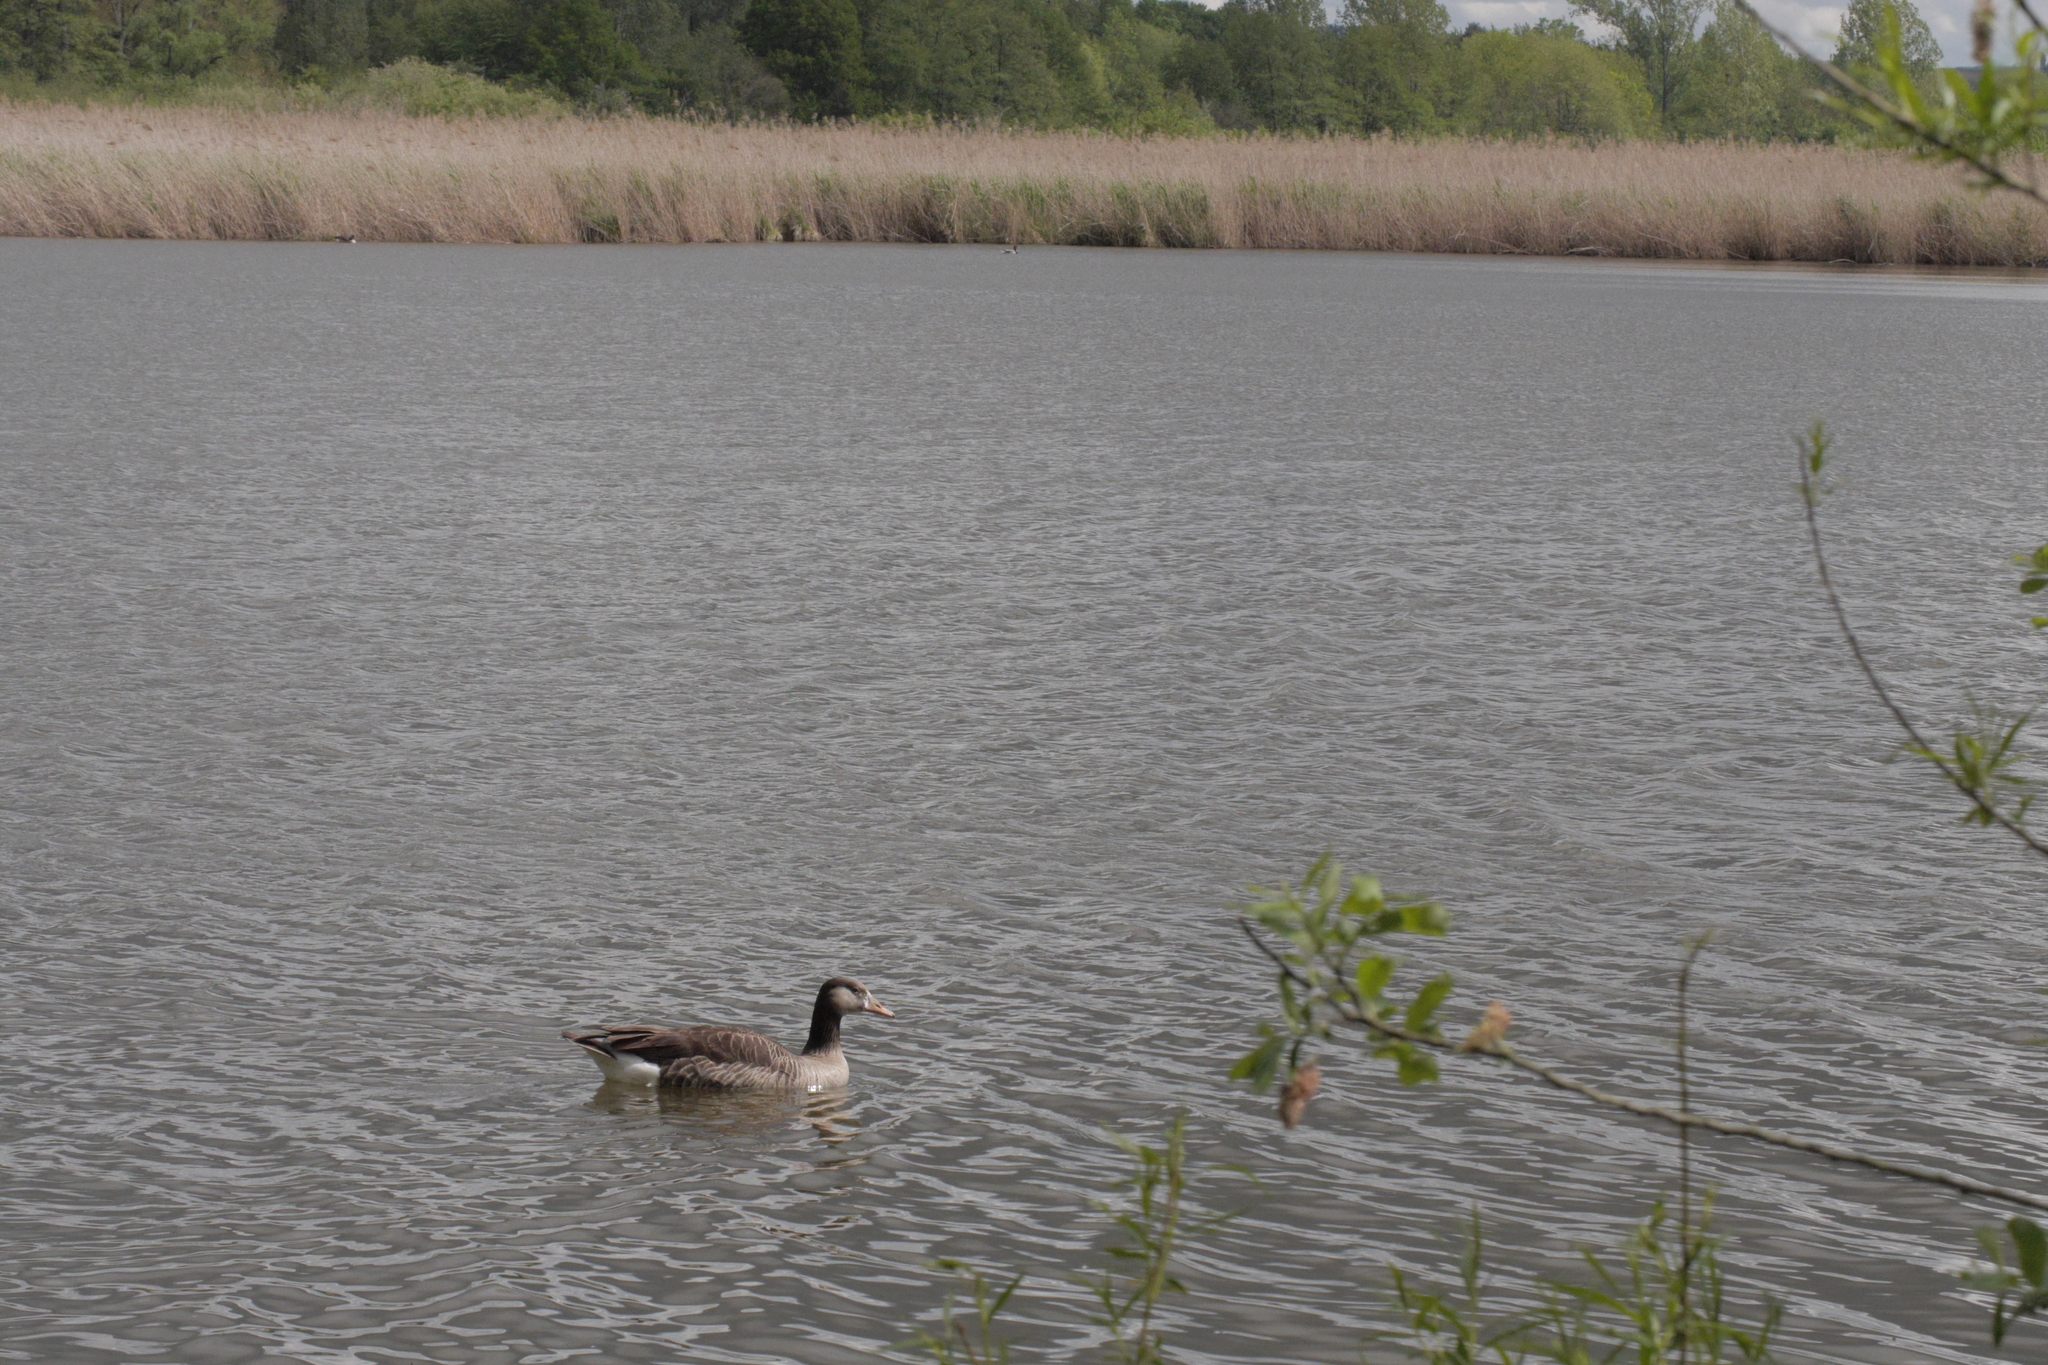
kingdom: Animalia
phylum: Chordata
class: Aves
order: Anseriformes
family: Anatidae
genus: Branta
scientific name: Branta canadensis
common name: Canada goose
